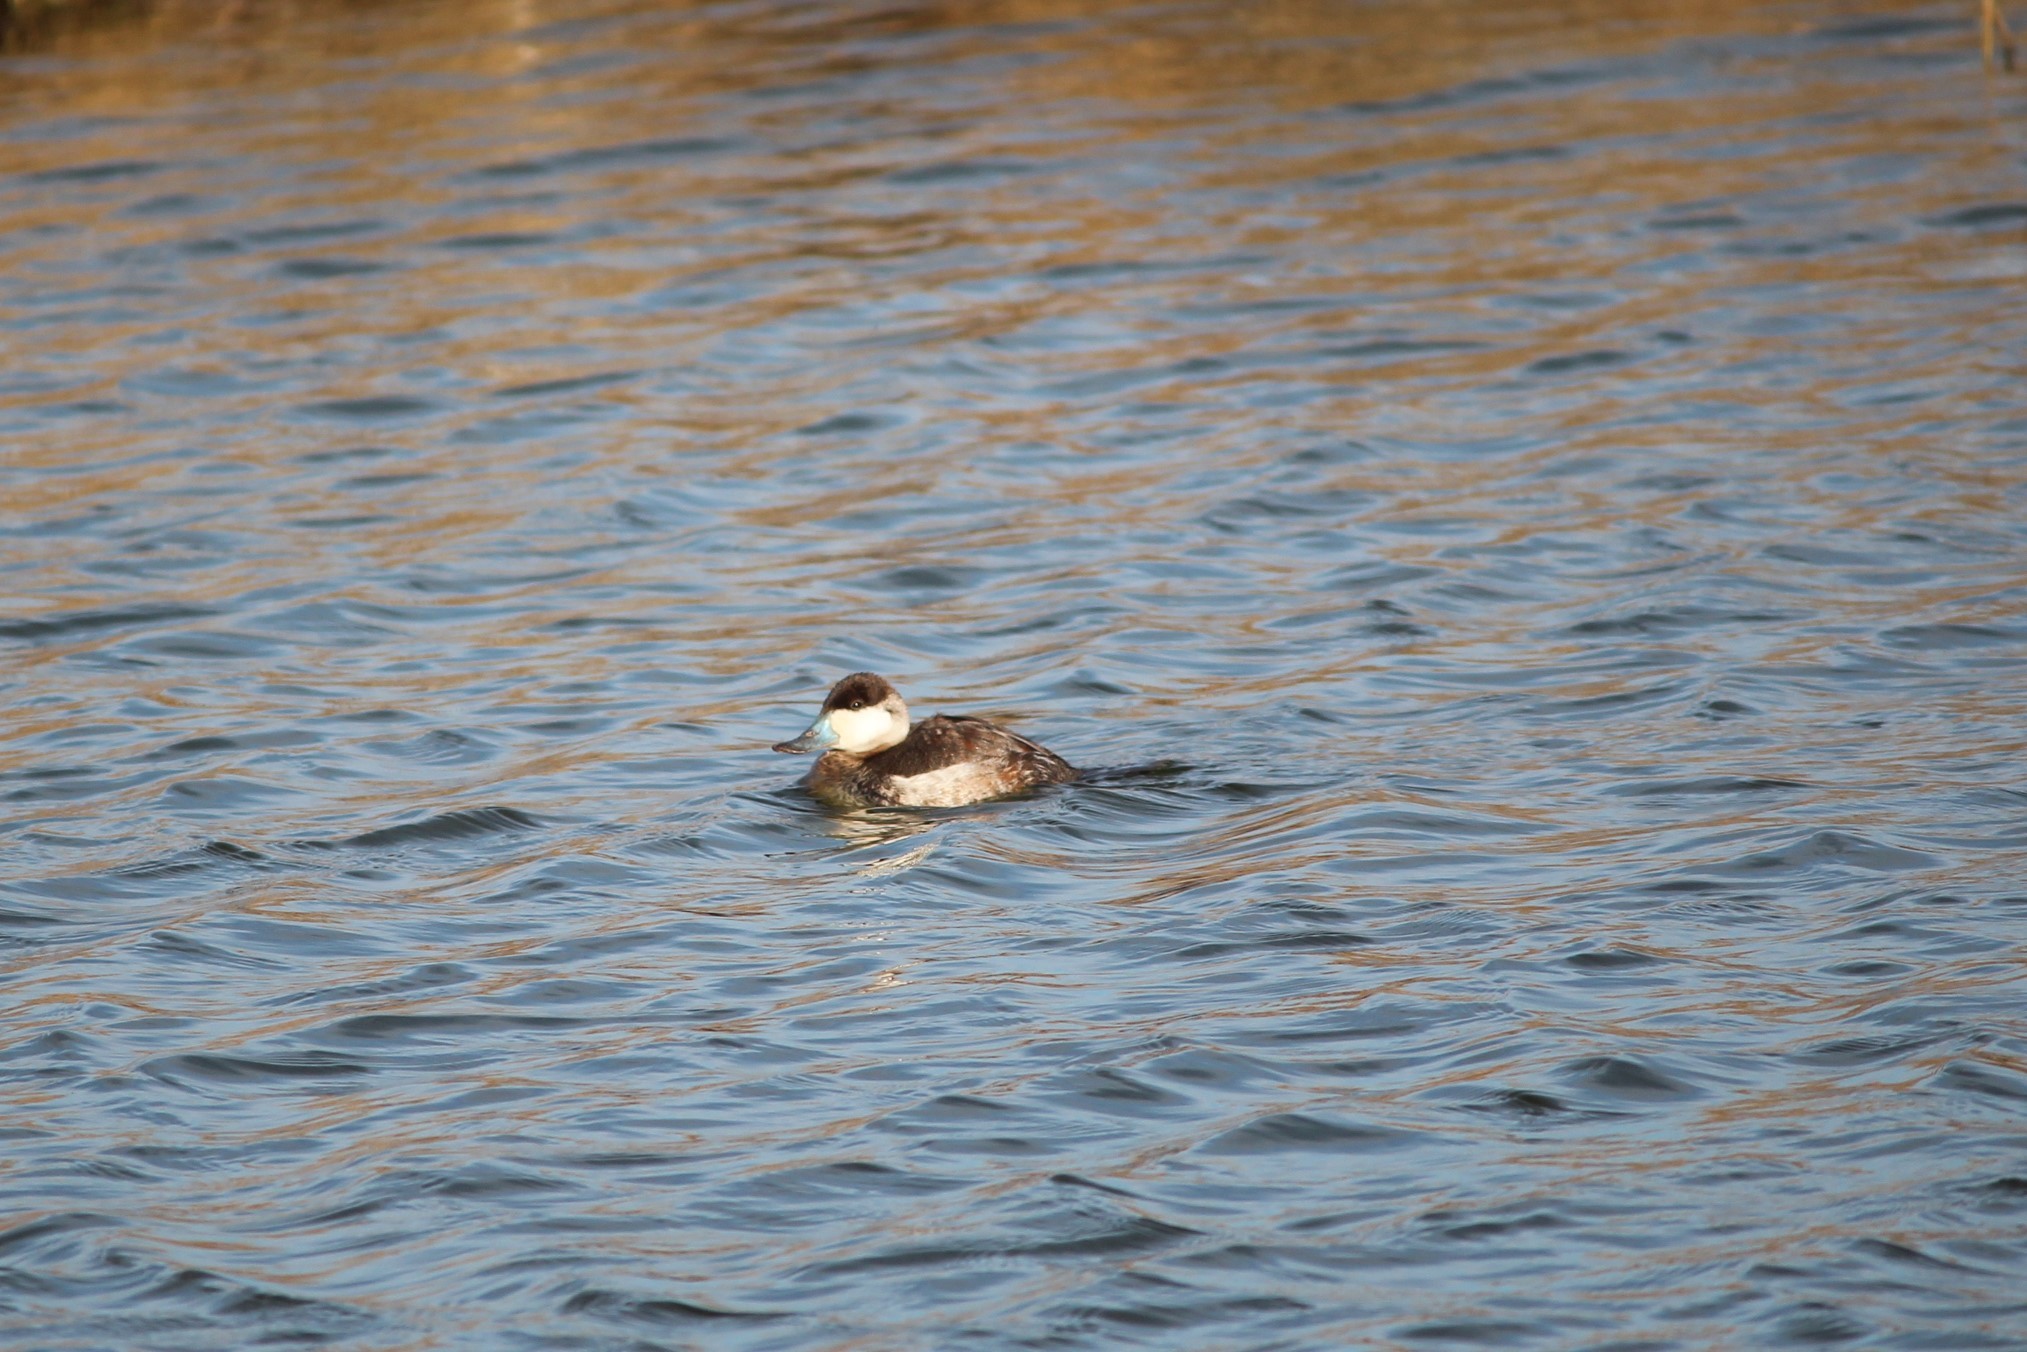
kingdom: Animalia
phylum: Chordata
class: Aves
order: Anseriformes
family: Anatidae
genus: Oxyura
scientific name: Oxyura jamaicensis
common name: Ruddy duck
